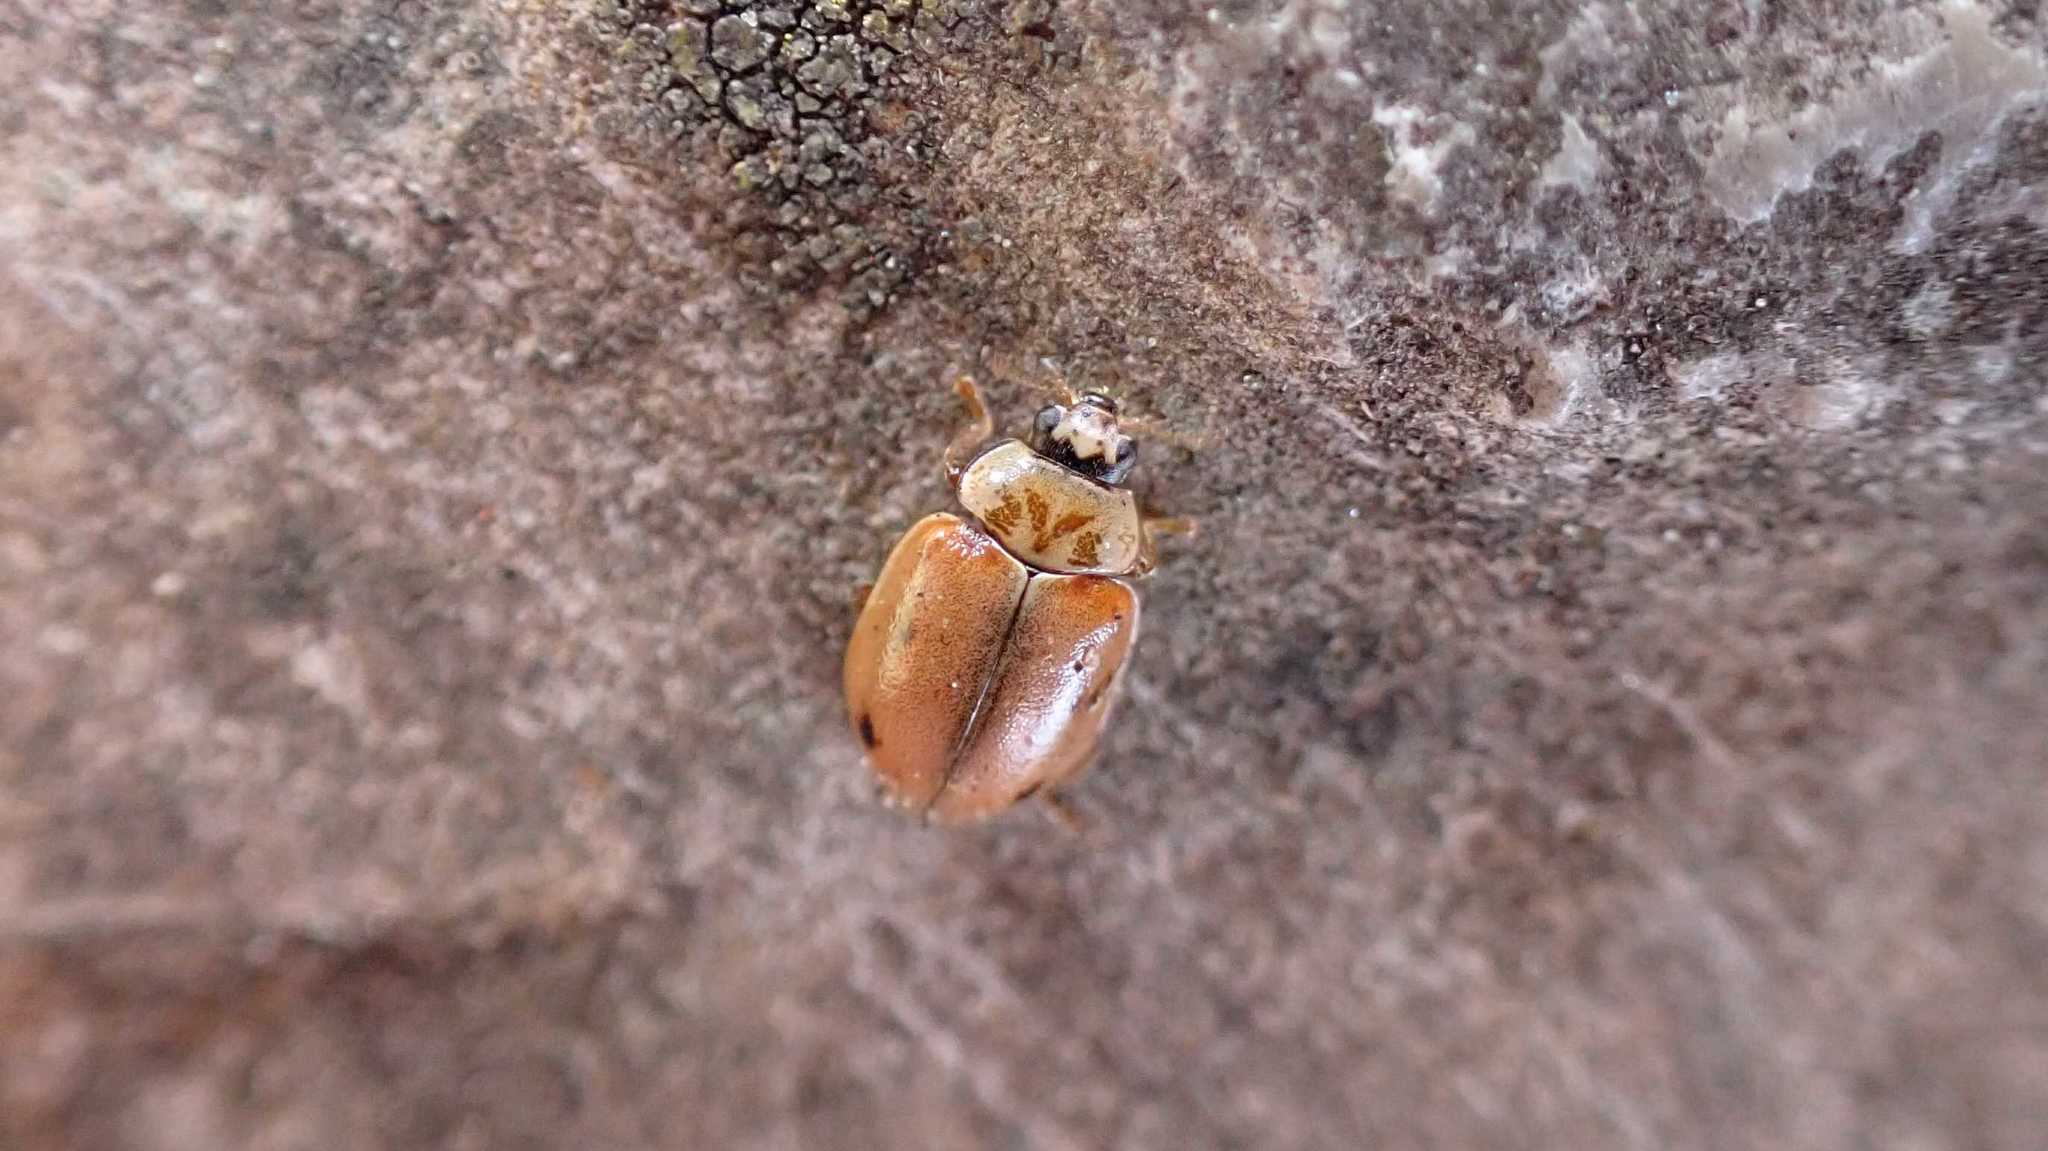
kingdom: Animalia
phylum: Arthropoda
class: Insecta
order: Coleoptera
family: Coccinellidae
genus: Aphidecta
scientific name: Aphidecta obliterata
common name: Larch ladybird
